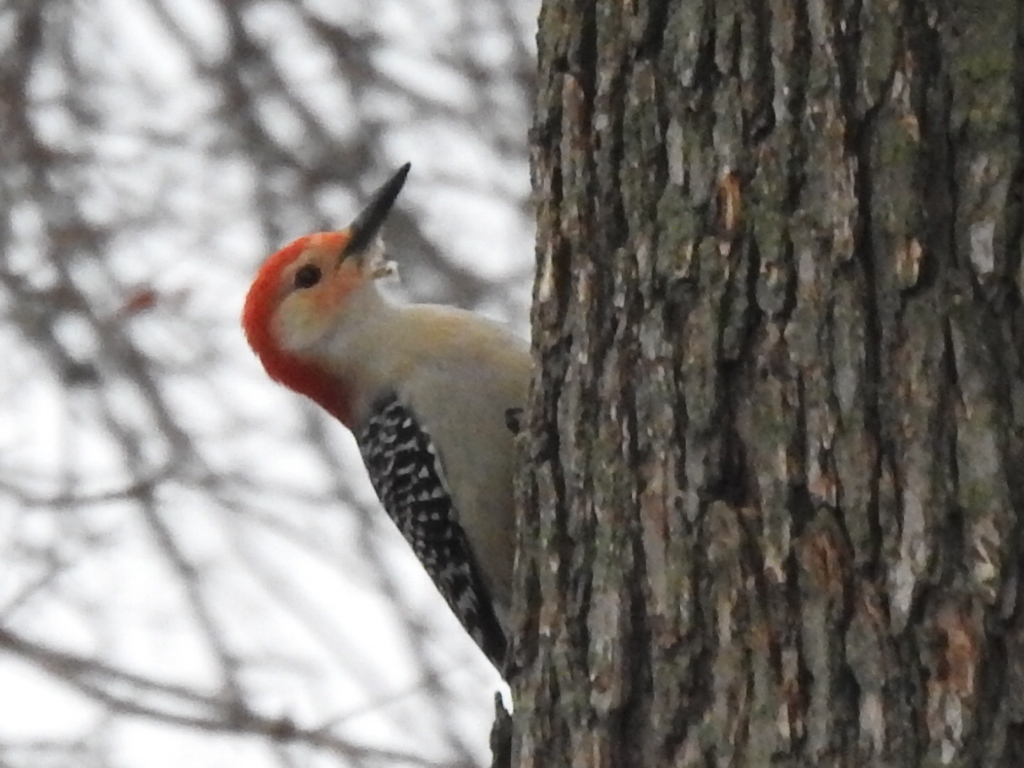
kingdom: Animalia
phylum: Chordata
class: Aves
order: Piciformes
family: Picidae
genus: Melanerpes
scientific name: Melanerpes carolinus
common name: Red-bellied woodpecker
